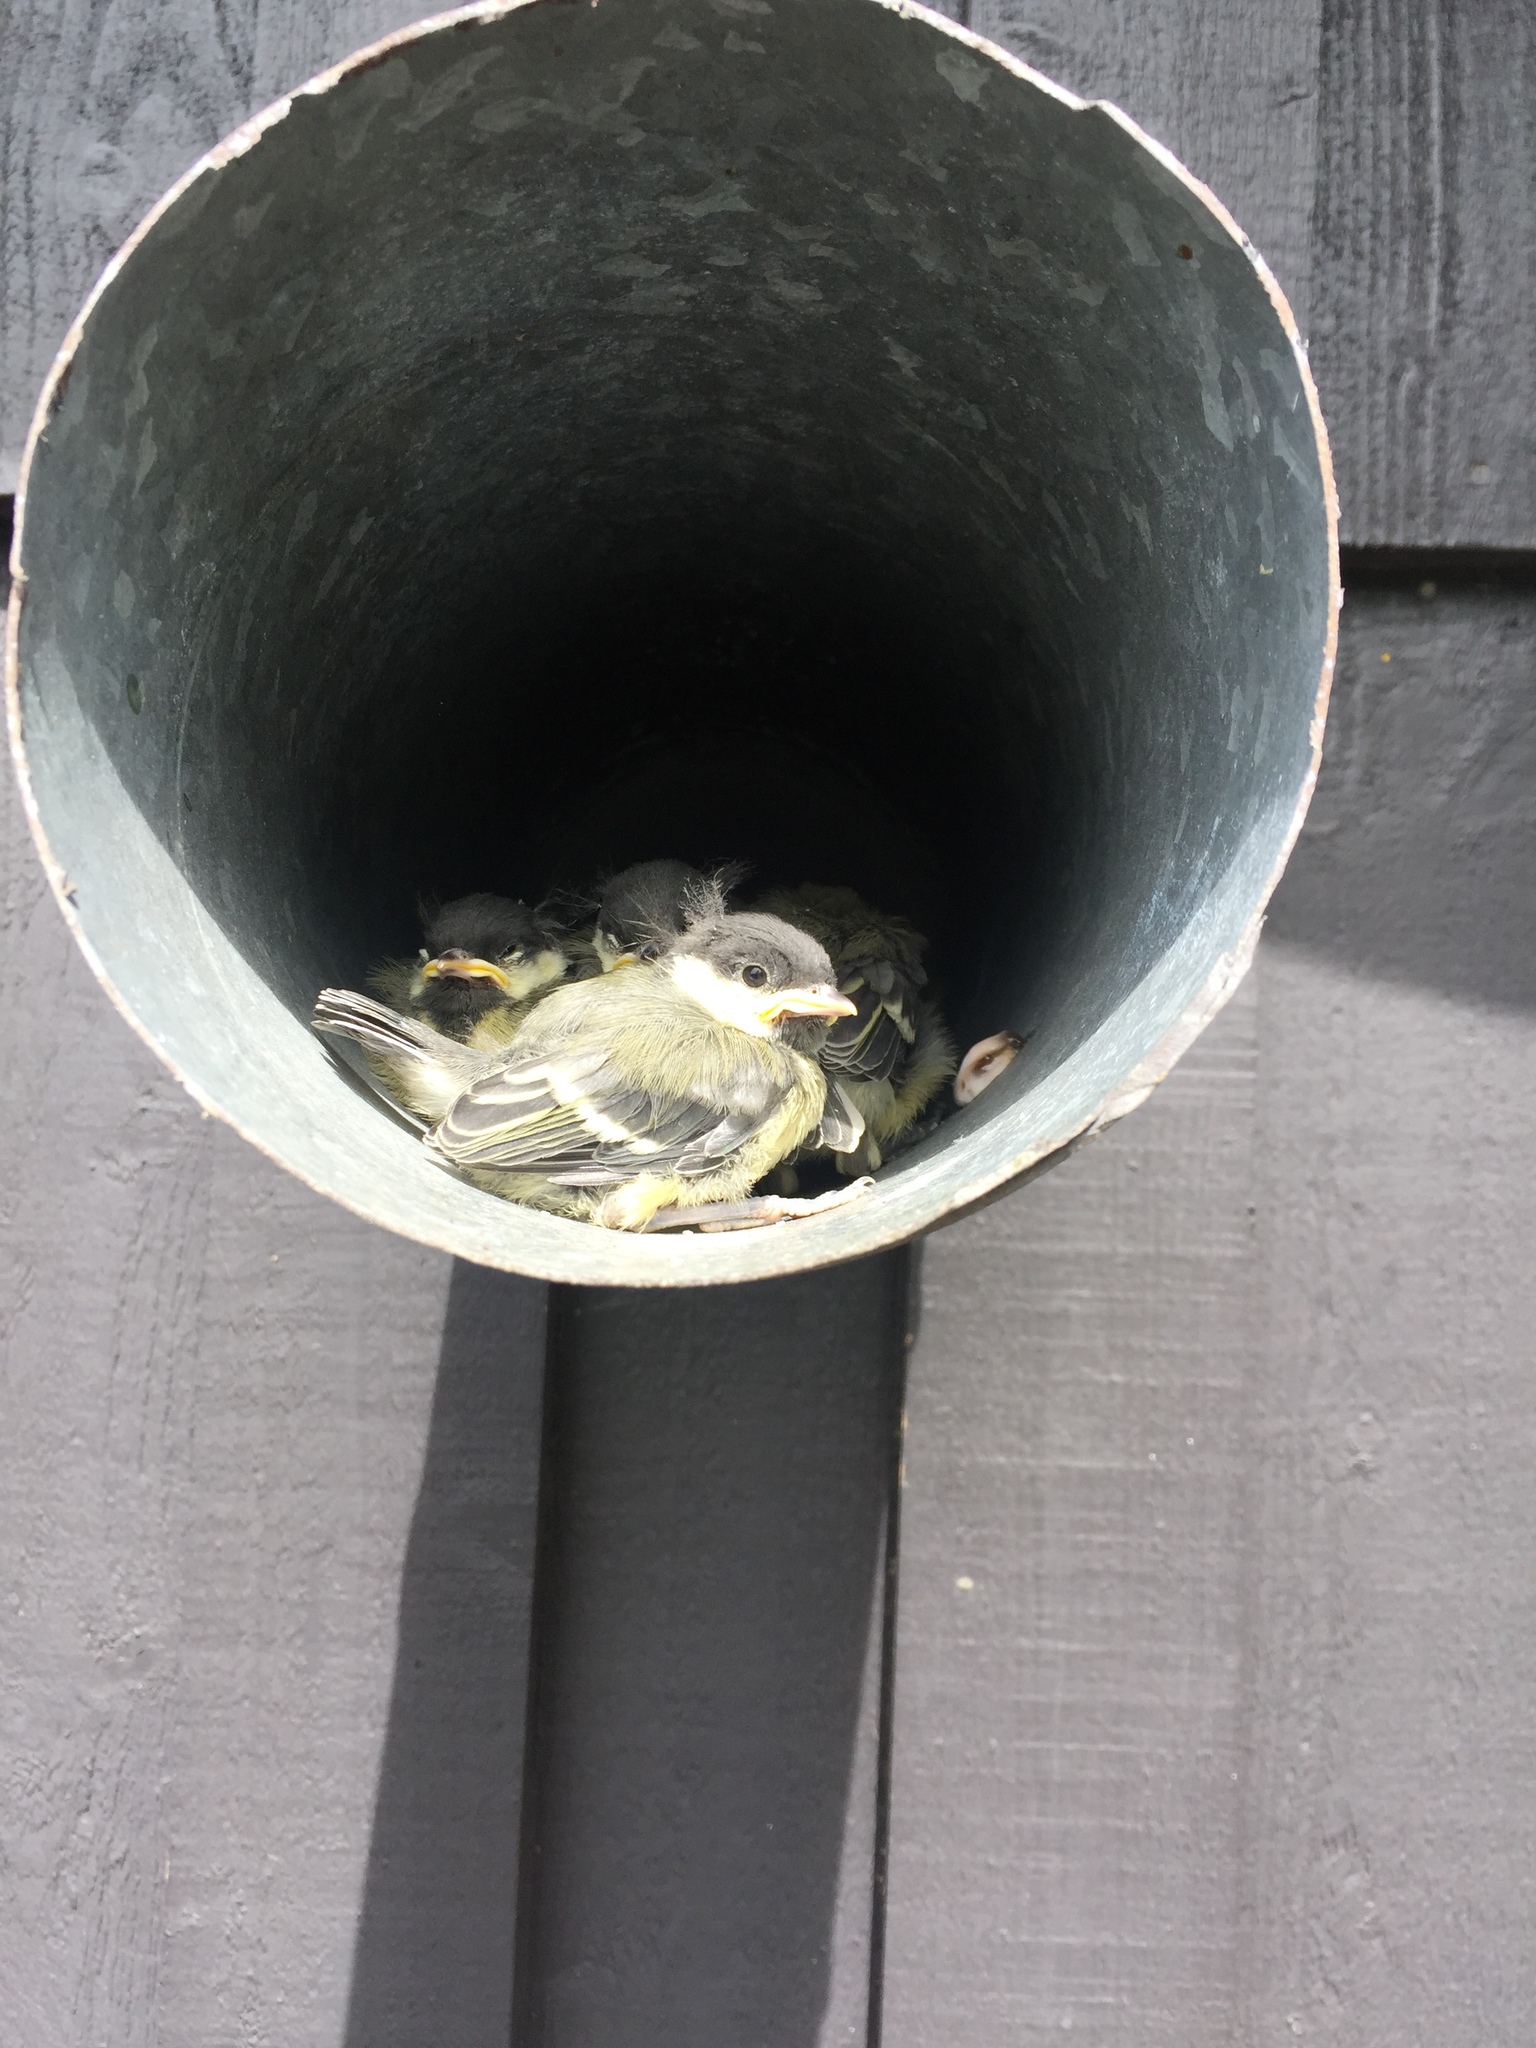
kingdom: Animalia
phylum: Chordata
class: Aves
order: Passeriformes
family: Paridae
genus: Parus
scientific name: Parus major
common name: Great tit
